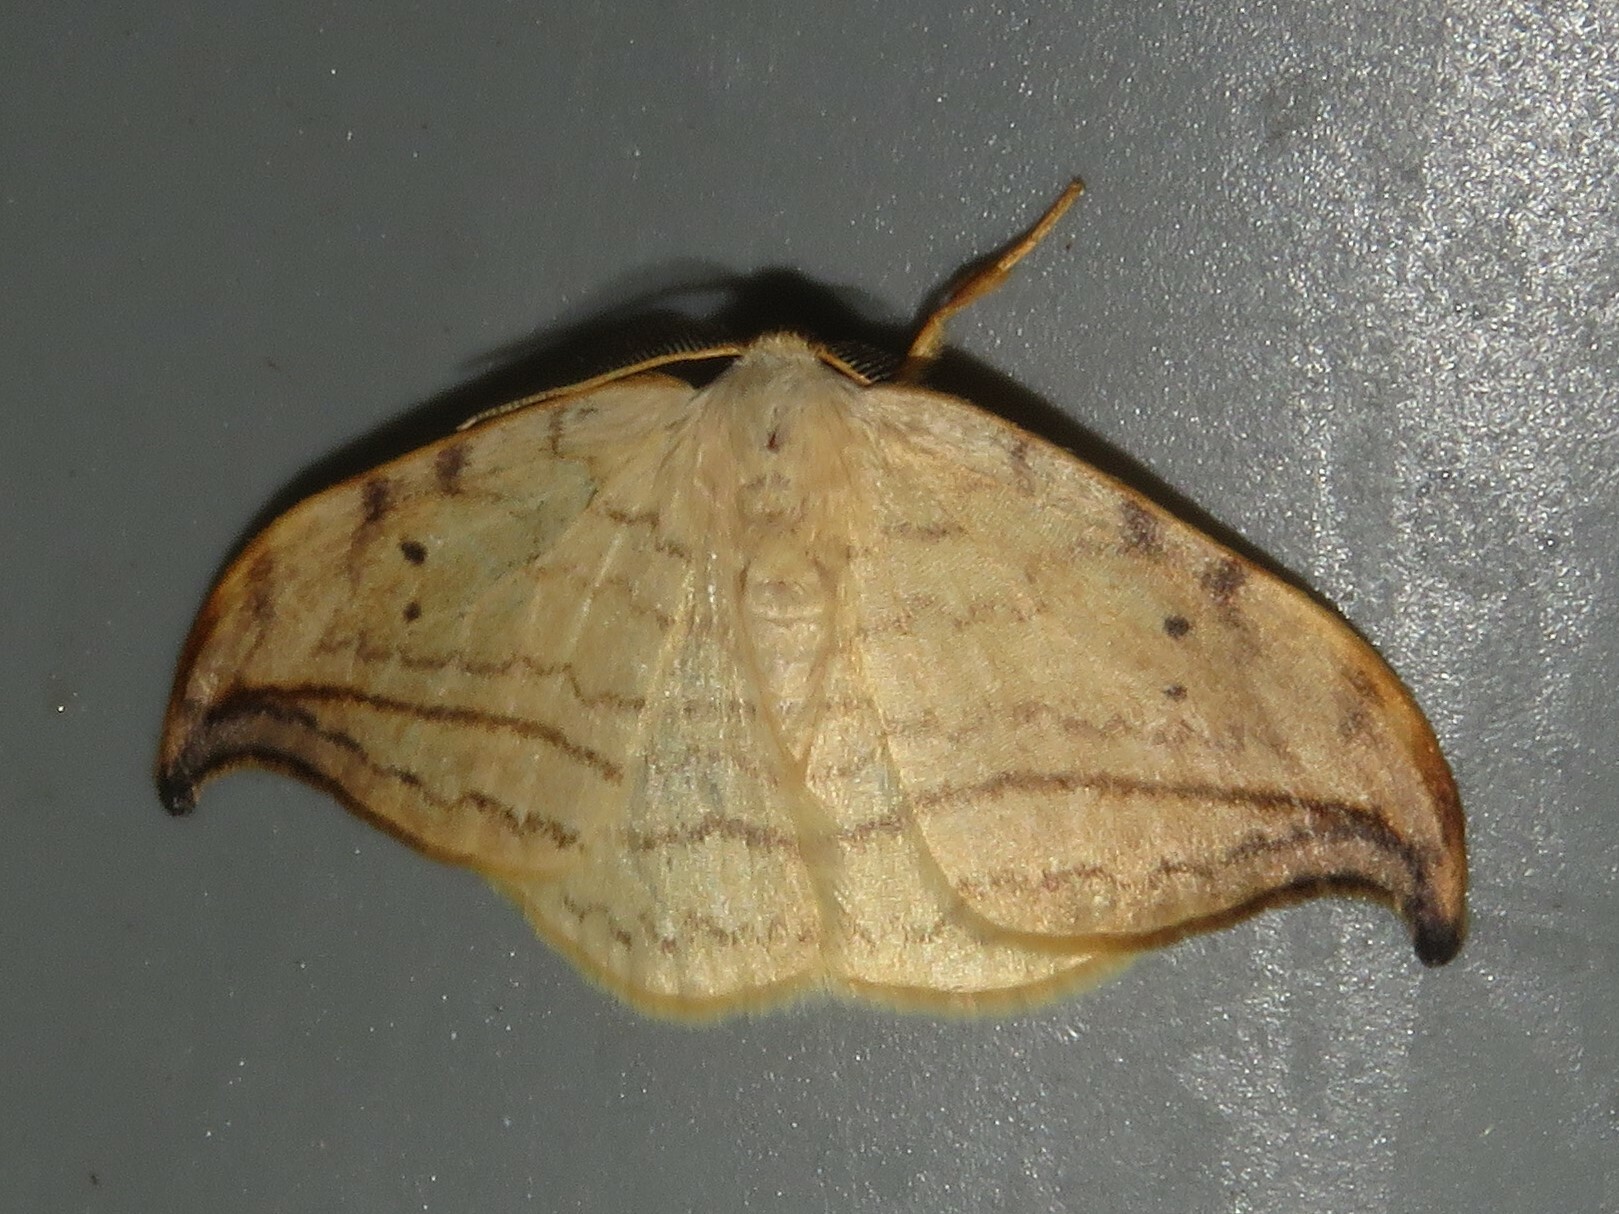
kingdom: Animalia
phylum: Arthropoda
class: Insecta
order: Lepidoptera
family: Drepanidae
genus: Drepana
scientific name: Drepana arcuata
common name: Arched hooktip moth
